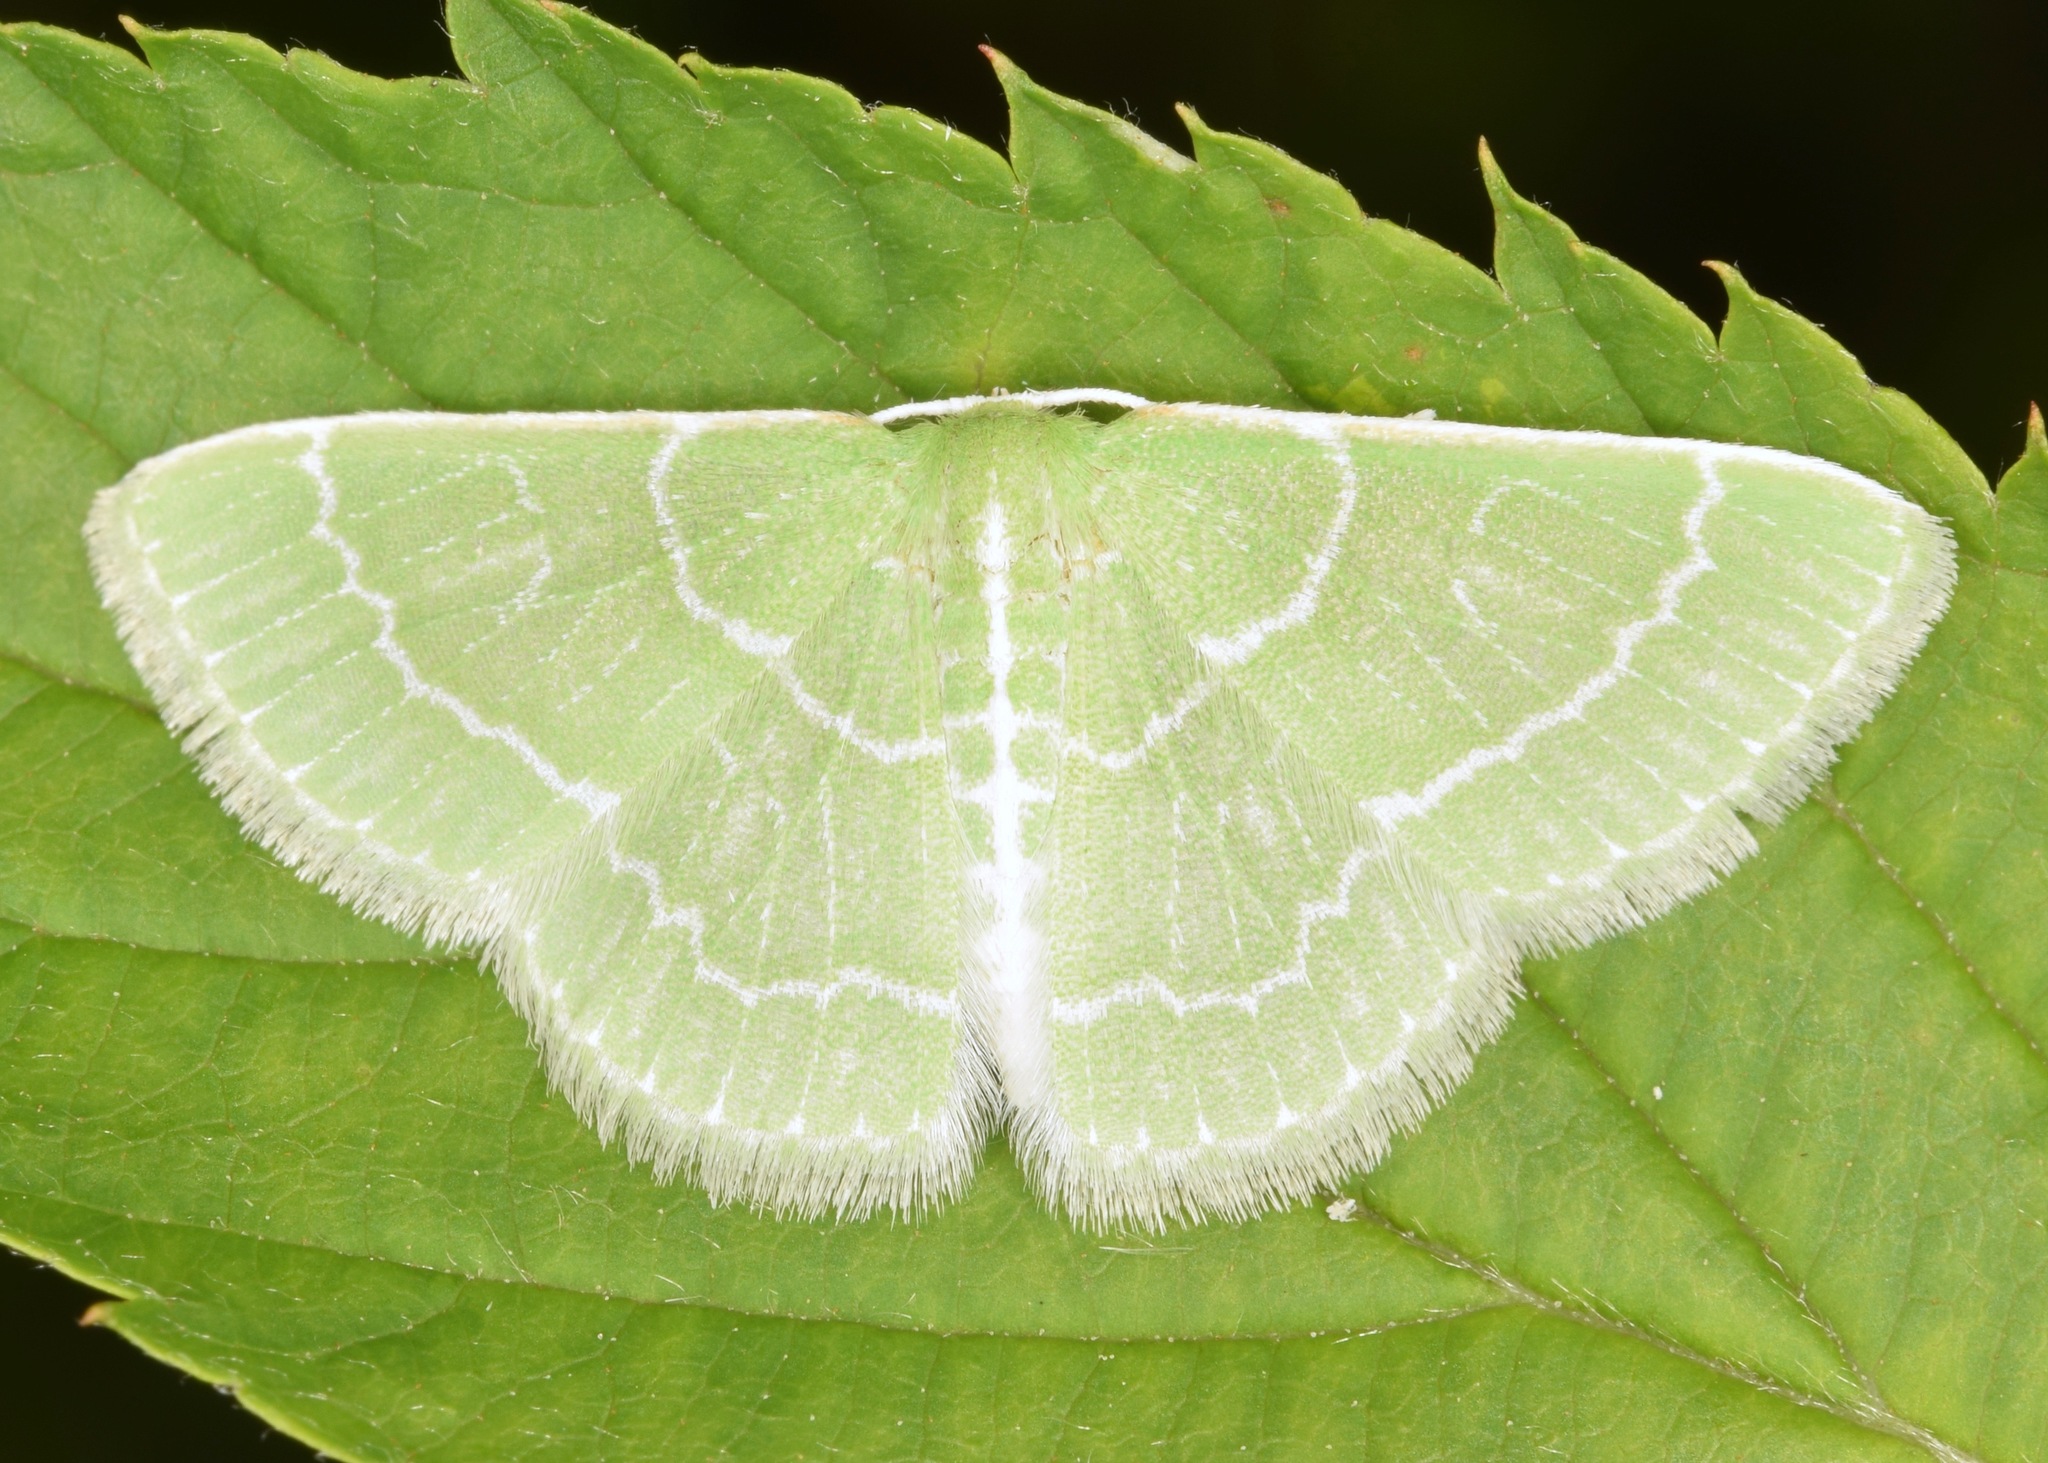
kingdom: Animalia
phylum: Arthropoda
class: Insecta
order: Lepidoptera
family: Geometridae
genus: Synchlora
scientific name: Synchlora aerata
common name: Wavy-lined emerald
